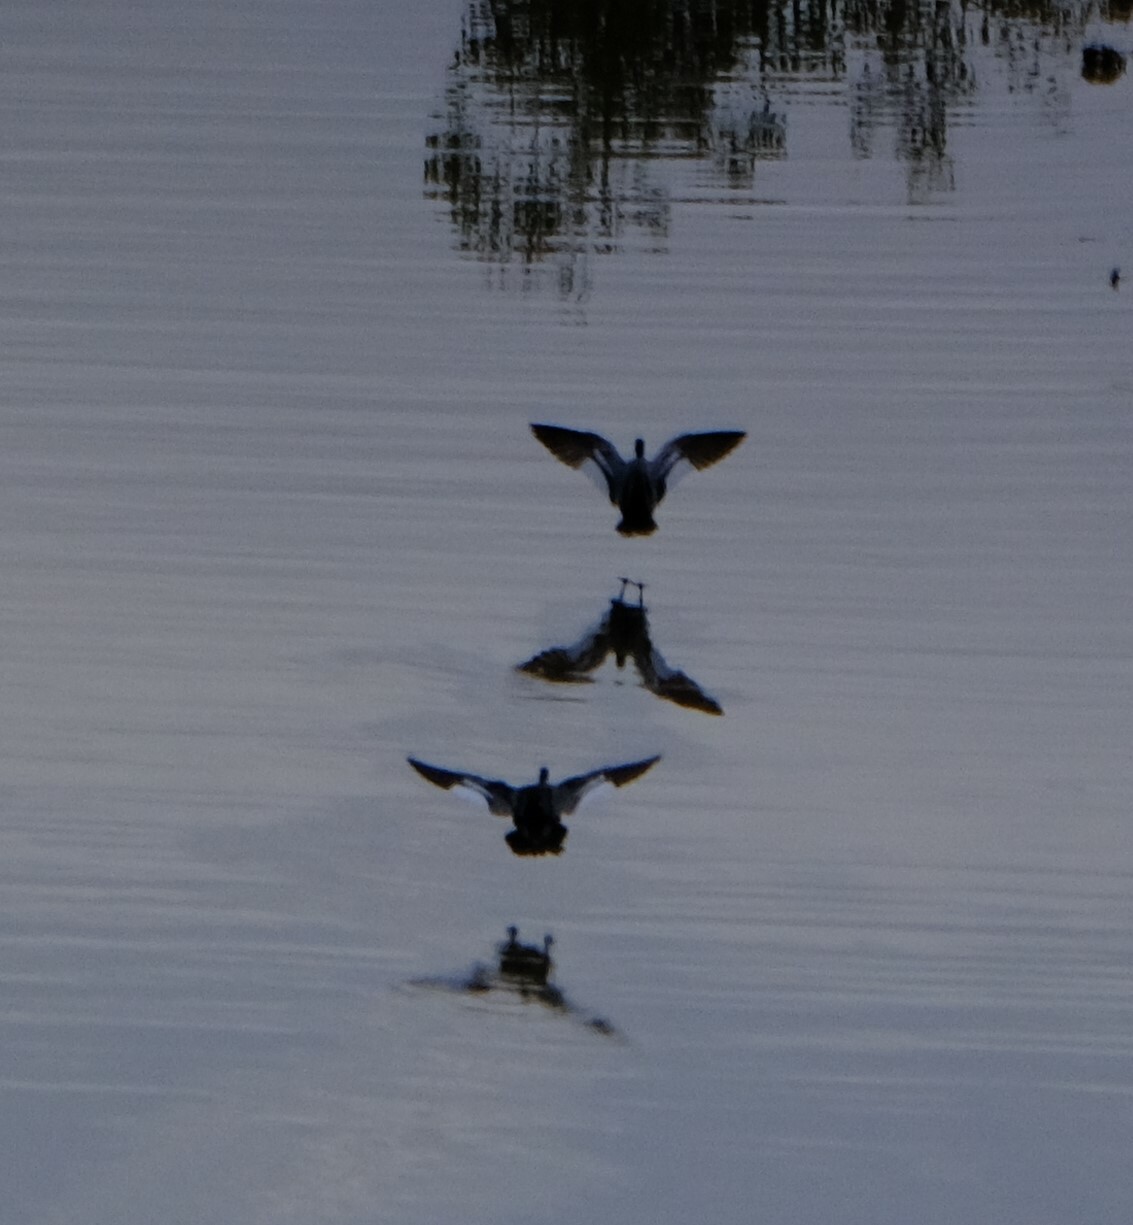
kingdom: Animalia
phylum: Chordata
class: Aves
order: Anseriformes
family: Anatidae
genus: Chenonetta
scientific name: Chenonetta jubata
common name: Maned duck
